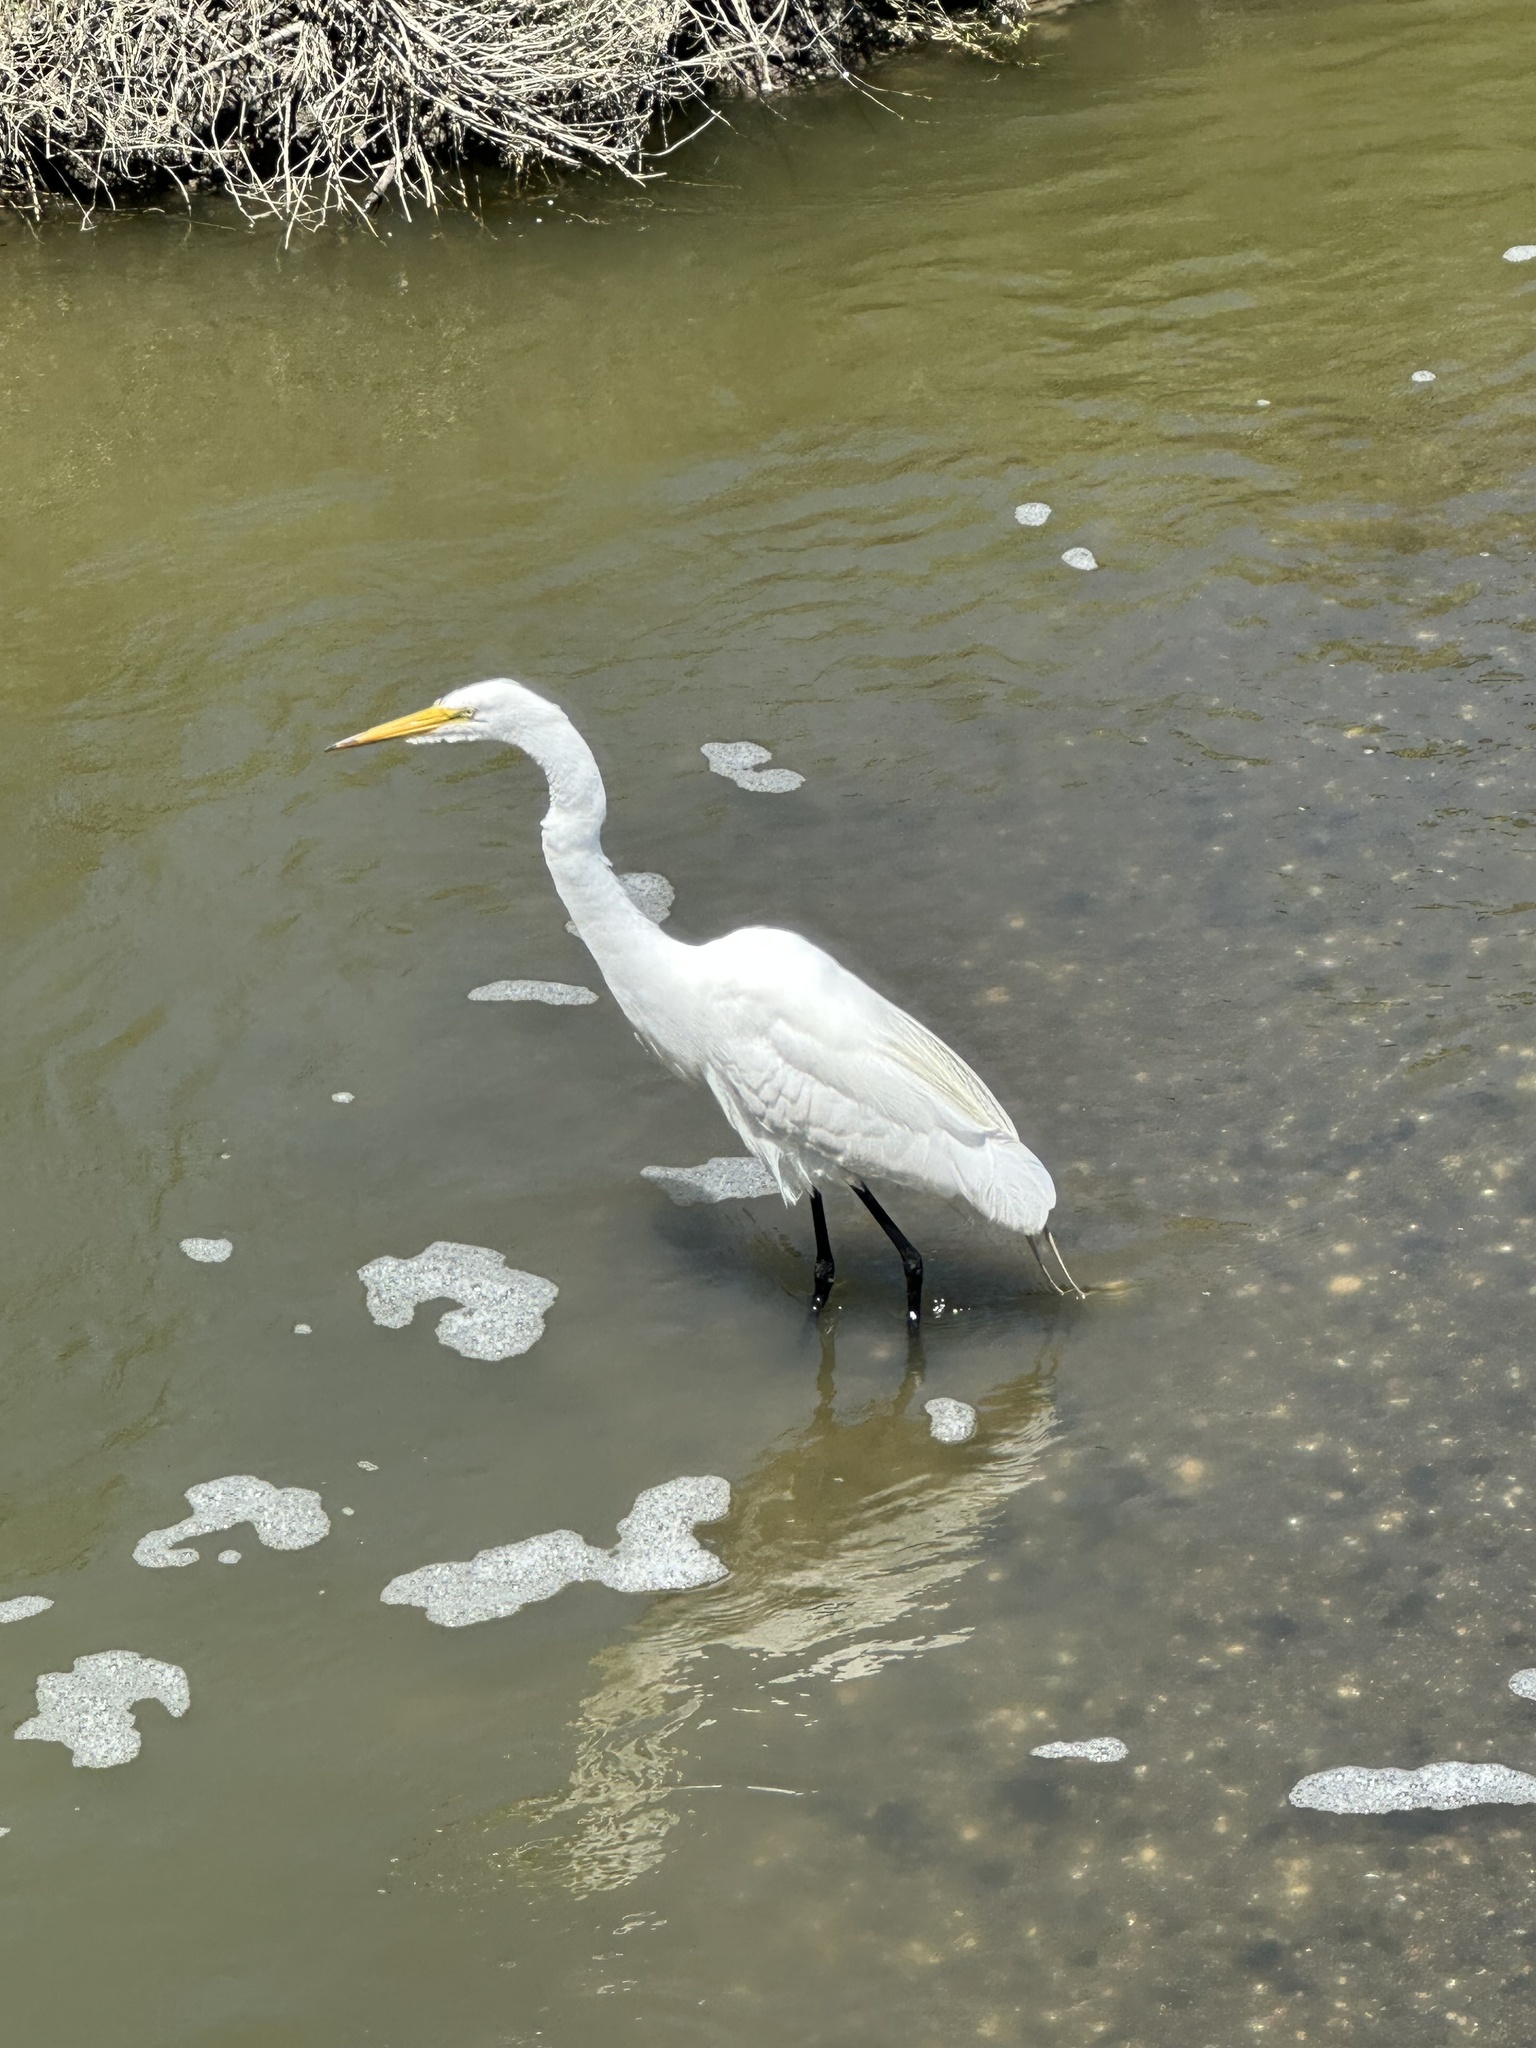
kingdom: Animalia
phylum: Chordata
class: Aves
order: Pelecaniformes
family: Ardeidae
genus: Ardea
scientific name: Ardea alba
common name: Great egret
